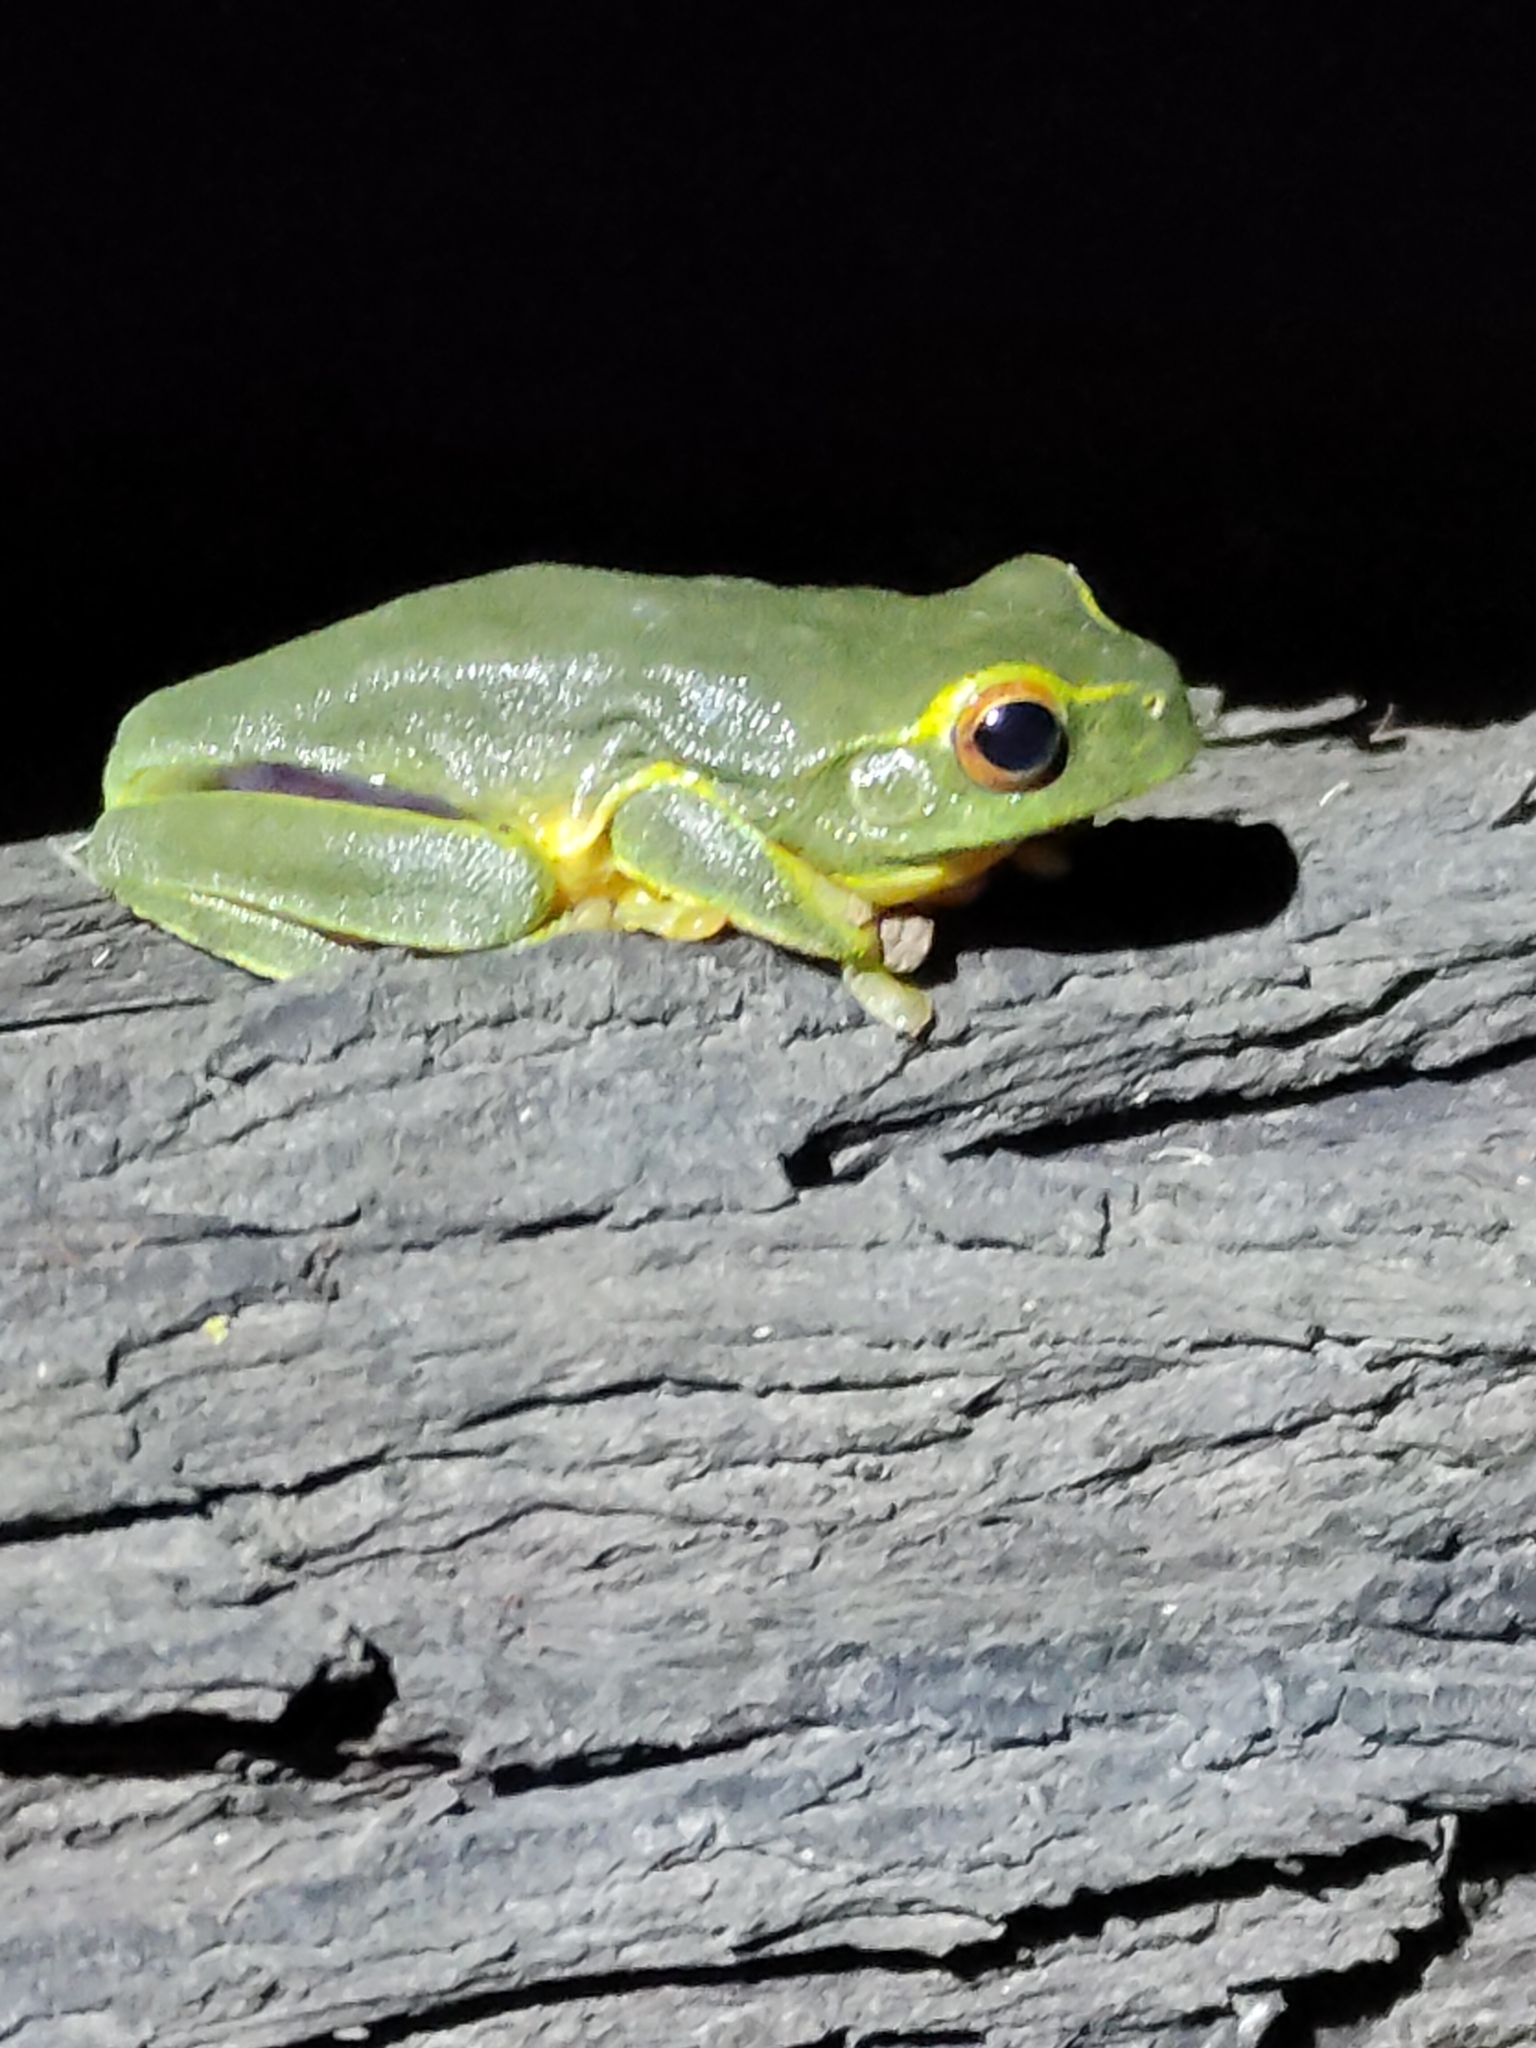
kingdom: Animalia
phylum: Chordata
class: Amphibia
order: Anura
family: Pelodryadidae
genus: Ranoidea
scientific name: Ranoidea gracilenta
